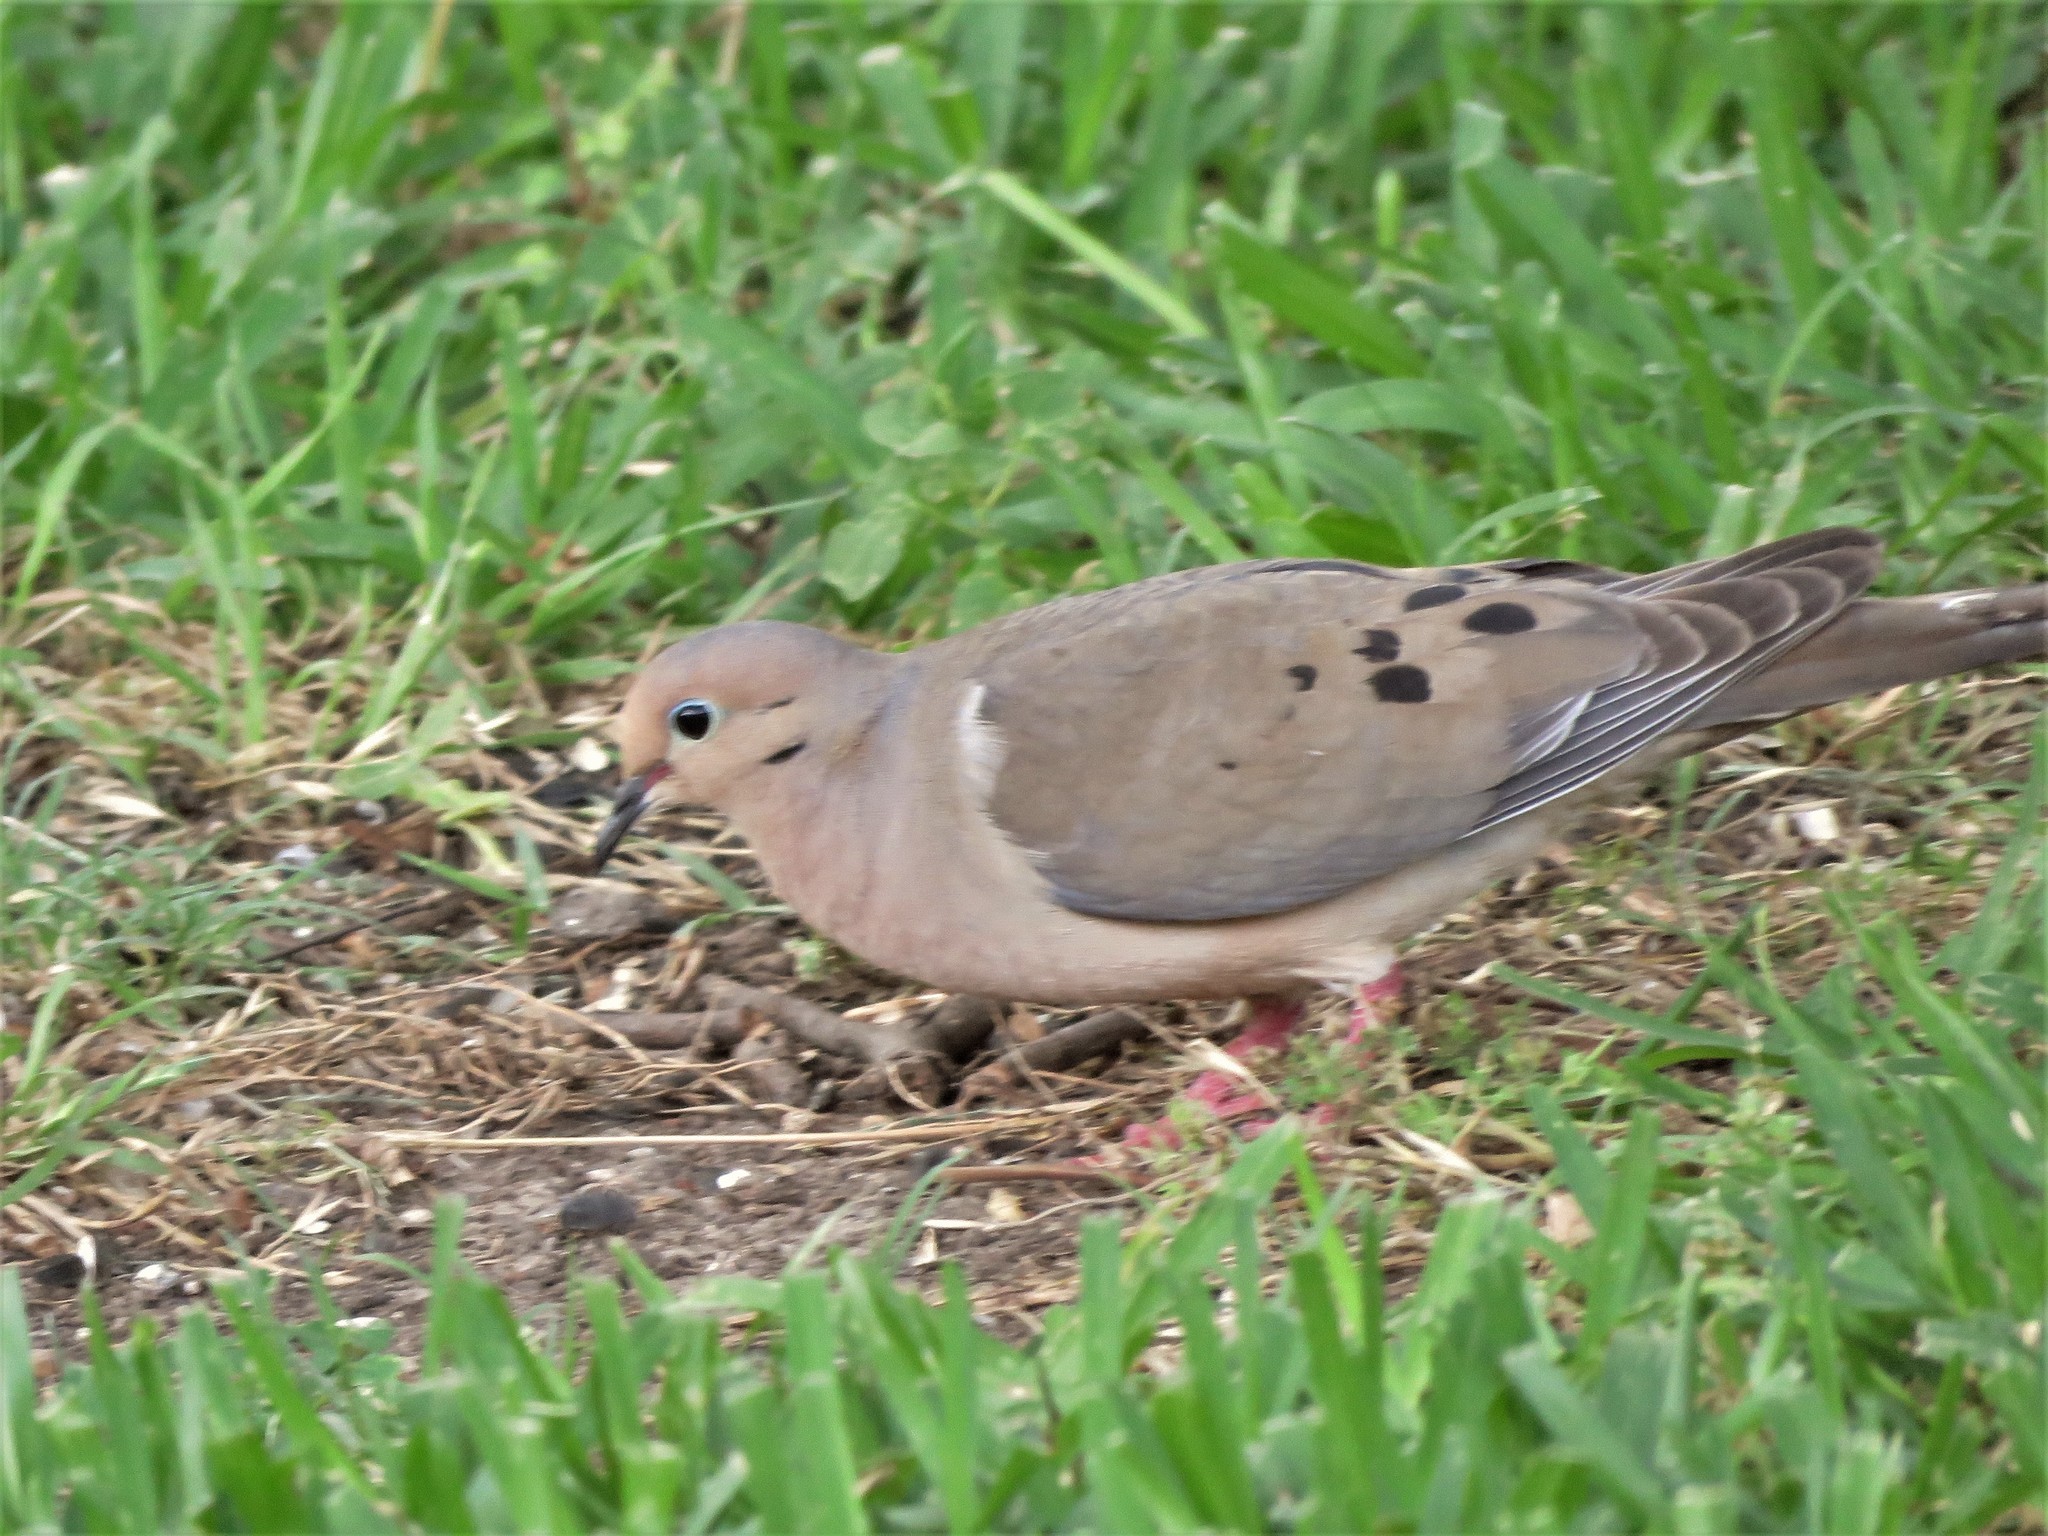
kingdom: Animalia
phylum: Chordata
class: Aves
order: Columbiformes
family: Columbidae
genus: Zenaida
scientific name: Zenaida macroura
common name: Mourning dove
